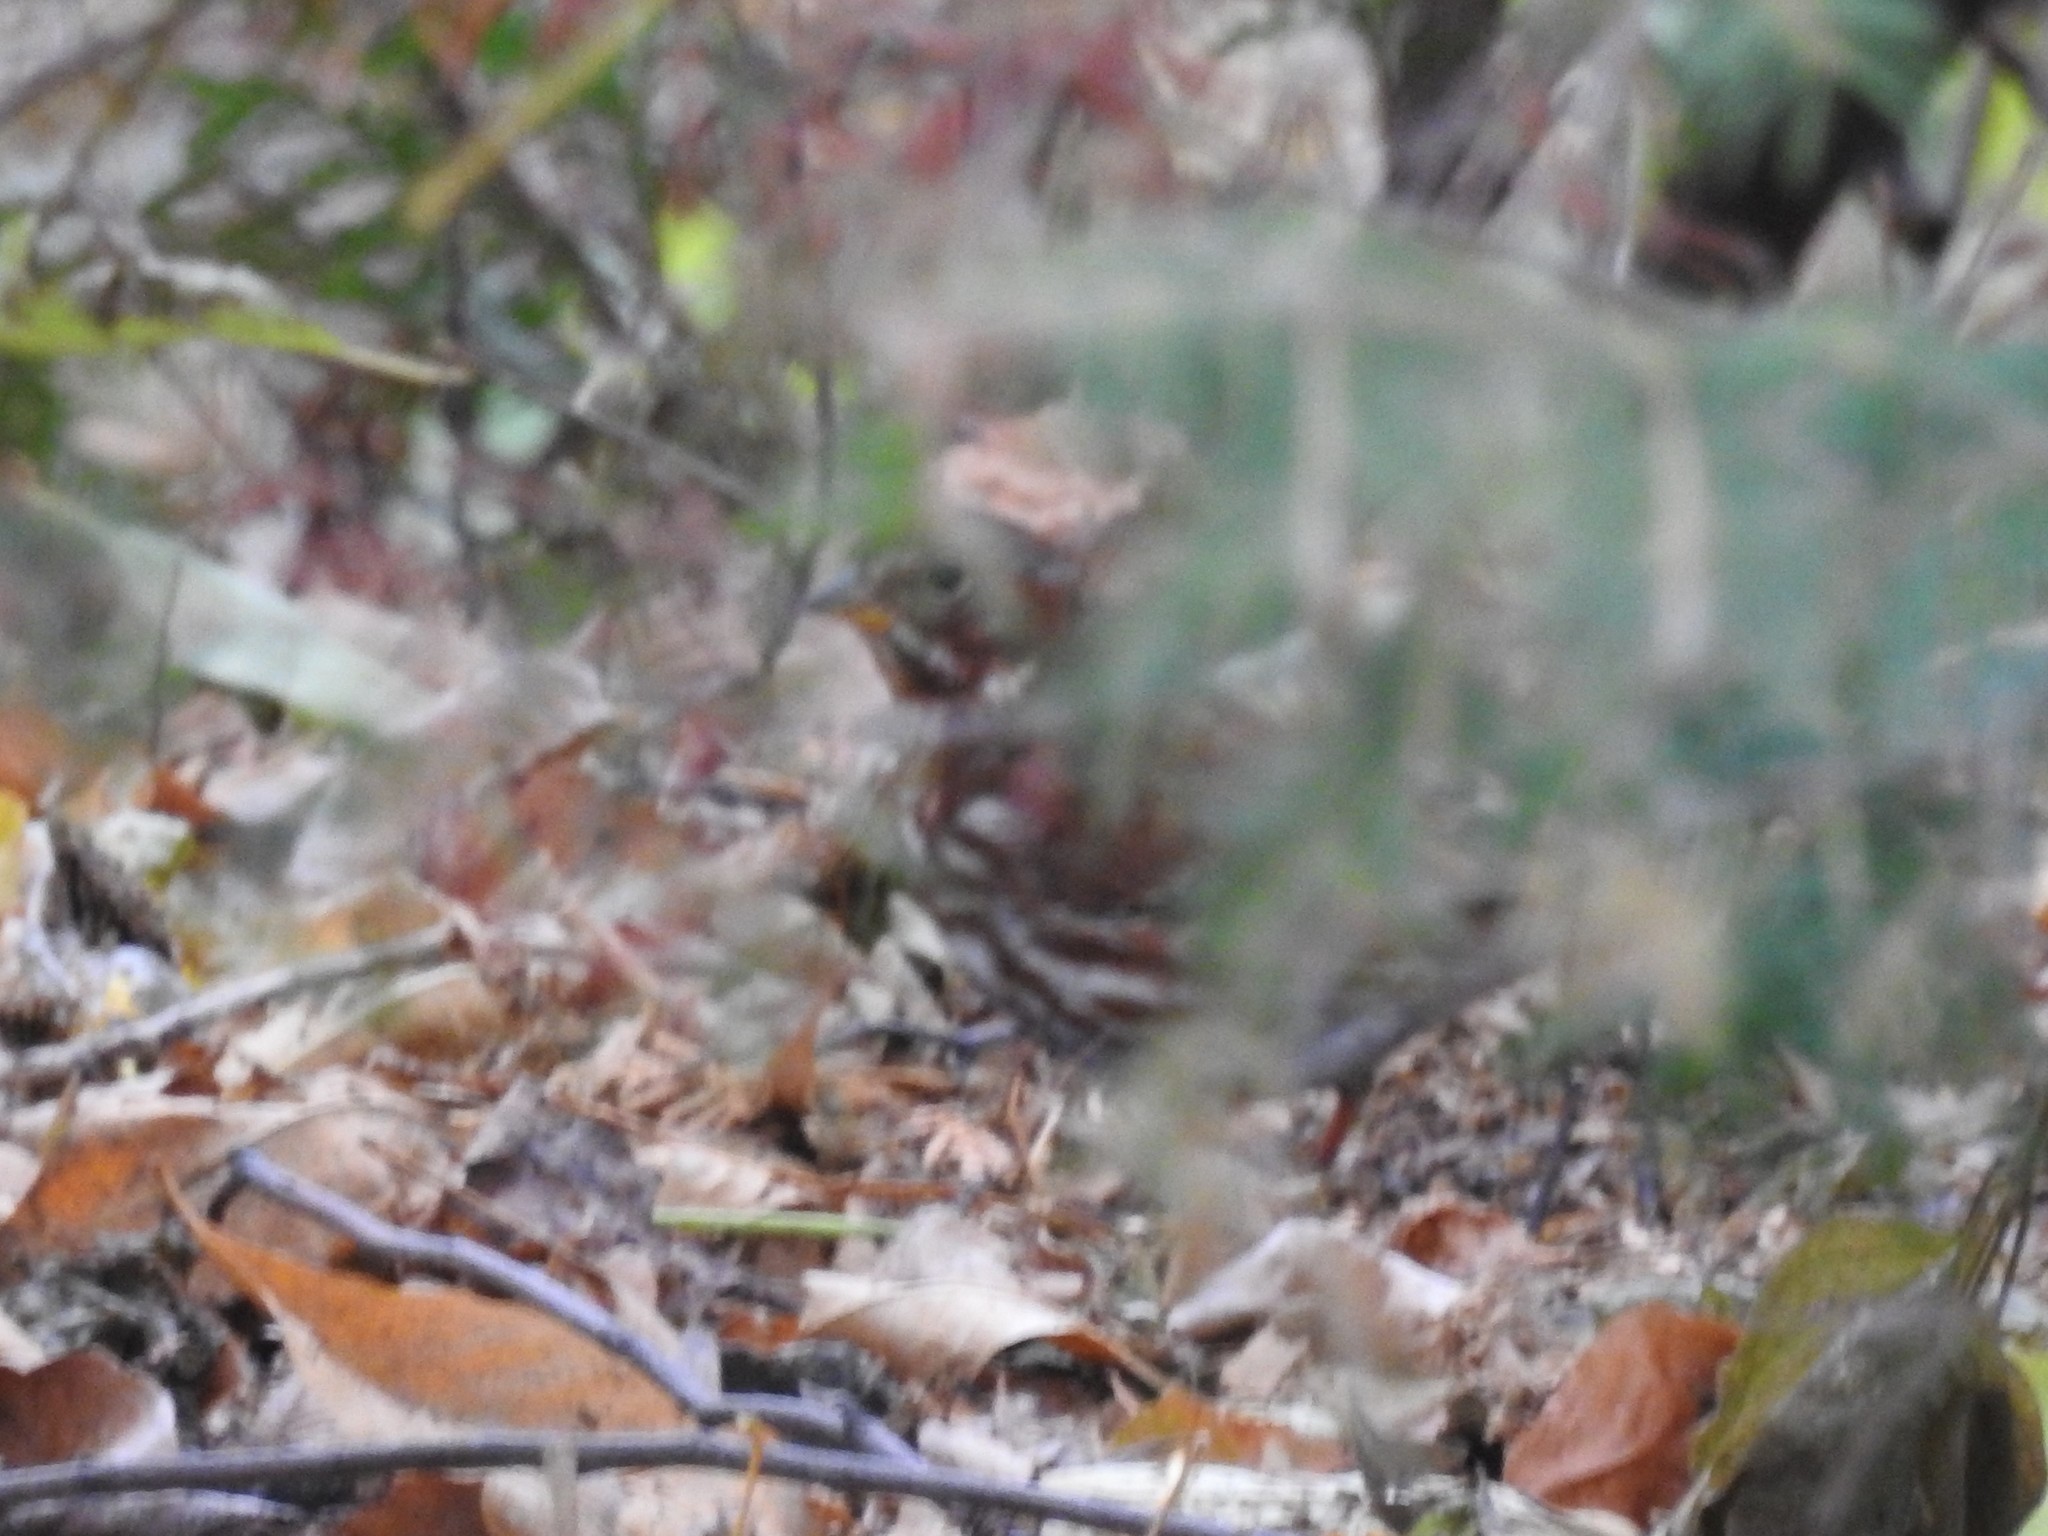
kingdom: Animalia
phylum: Chordata
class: Aves
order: Passeriformes
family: Passerellidae
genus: Passerella
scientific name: Passerella iliaca
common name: Fox sparrow
